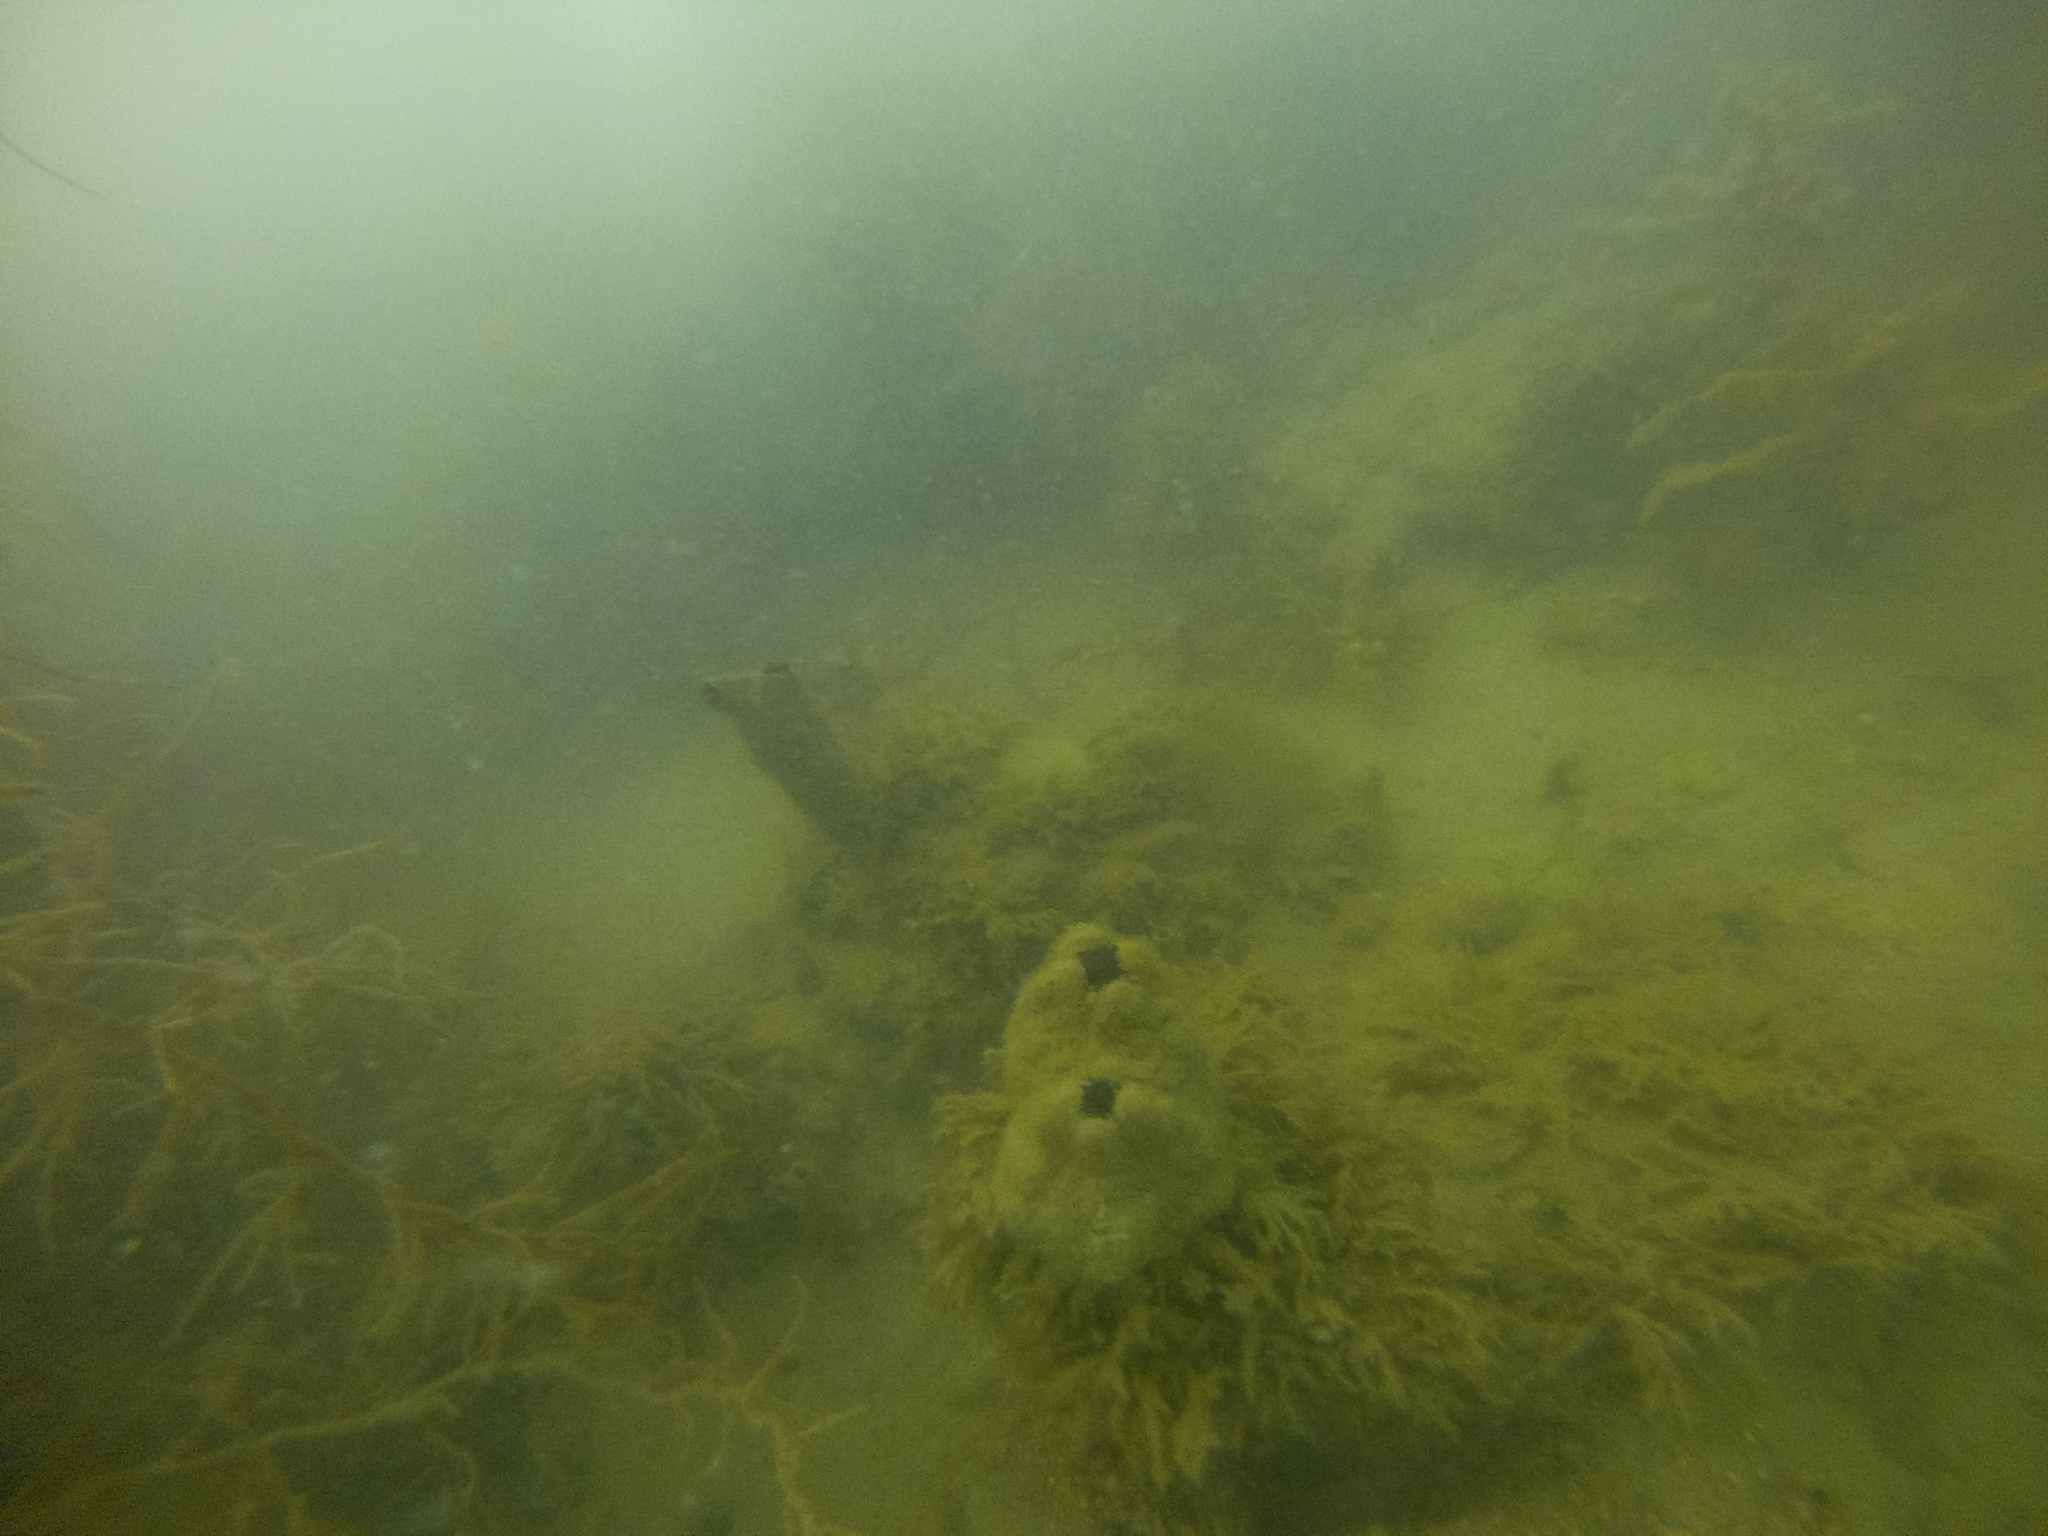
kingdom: Animalia
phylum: Chordata
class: Ascidiacea
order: Stolidobranchia
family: Styelidae
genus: Styela
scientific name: Styela plicata
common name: Pleated tunicate
